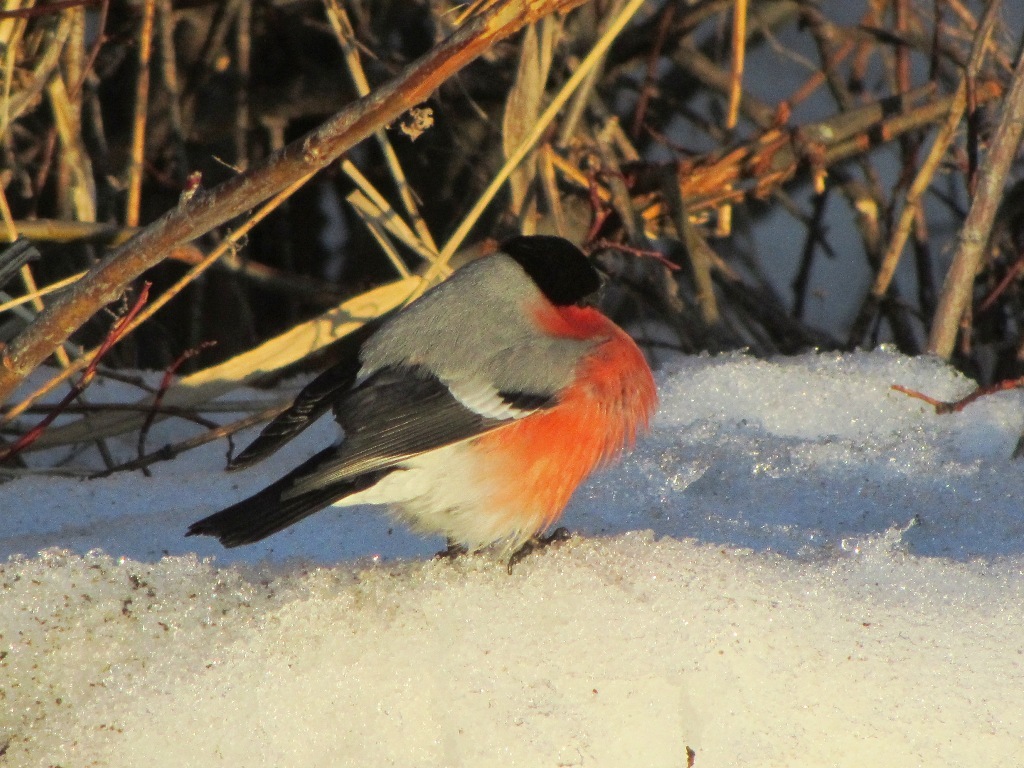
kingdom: Animalia
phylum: Chordata
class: Aves
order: Passeriformes
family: Fringillidae
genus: Pyrrhula
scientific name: Pyrrhula pyrrhula
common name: Eurasian bullfinch
